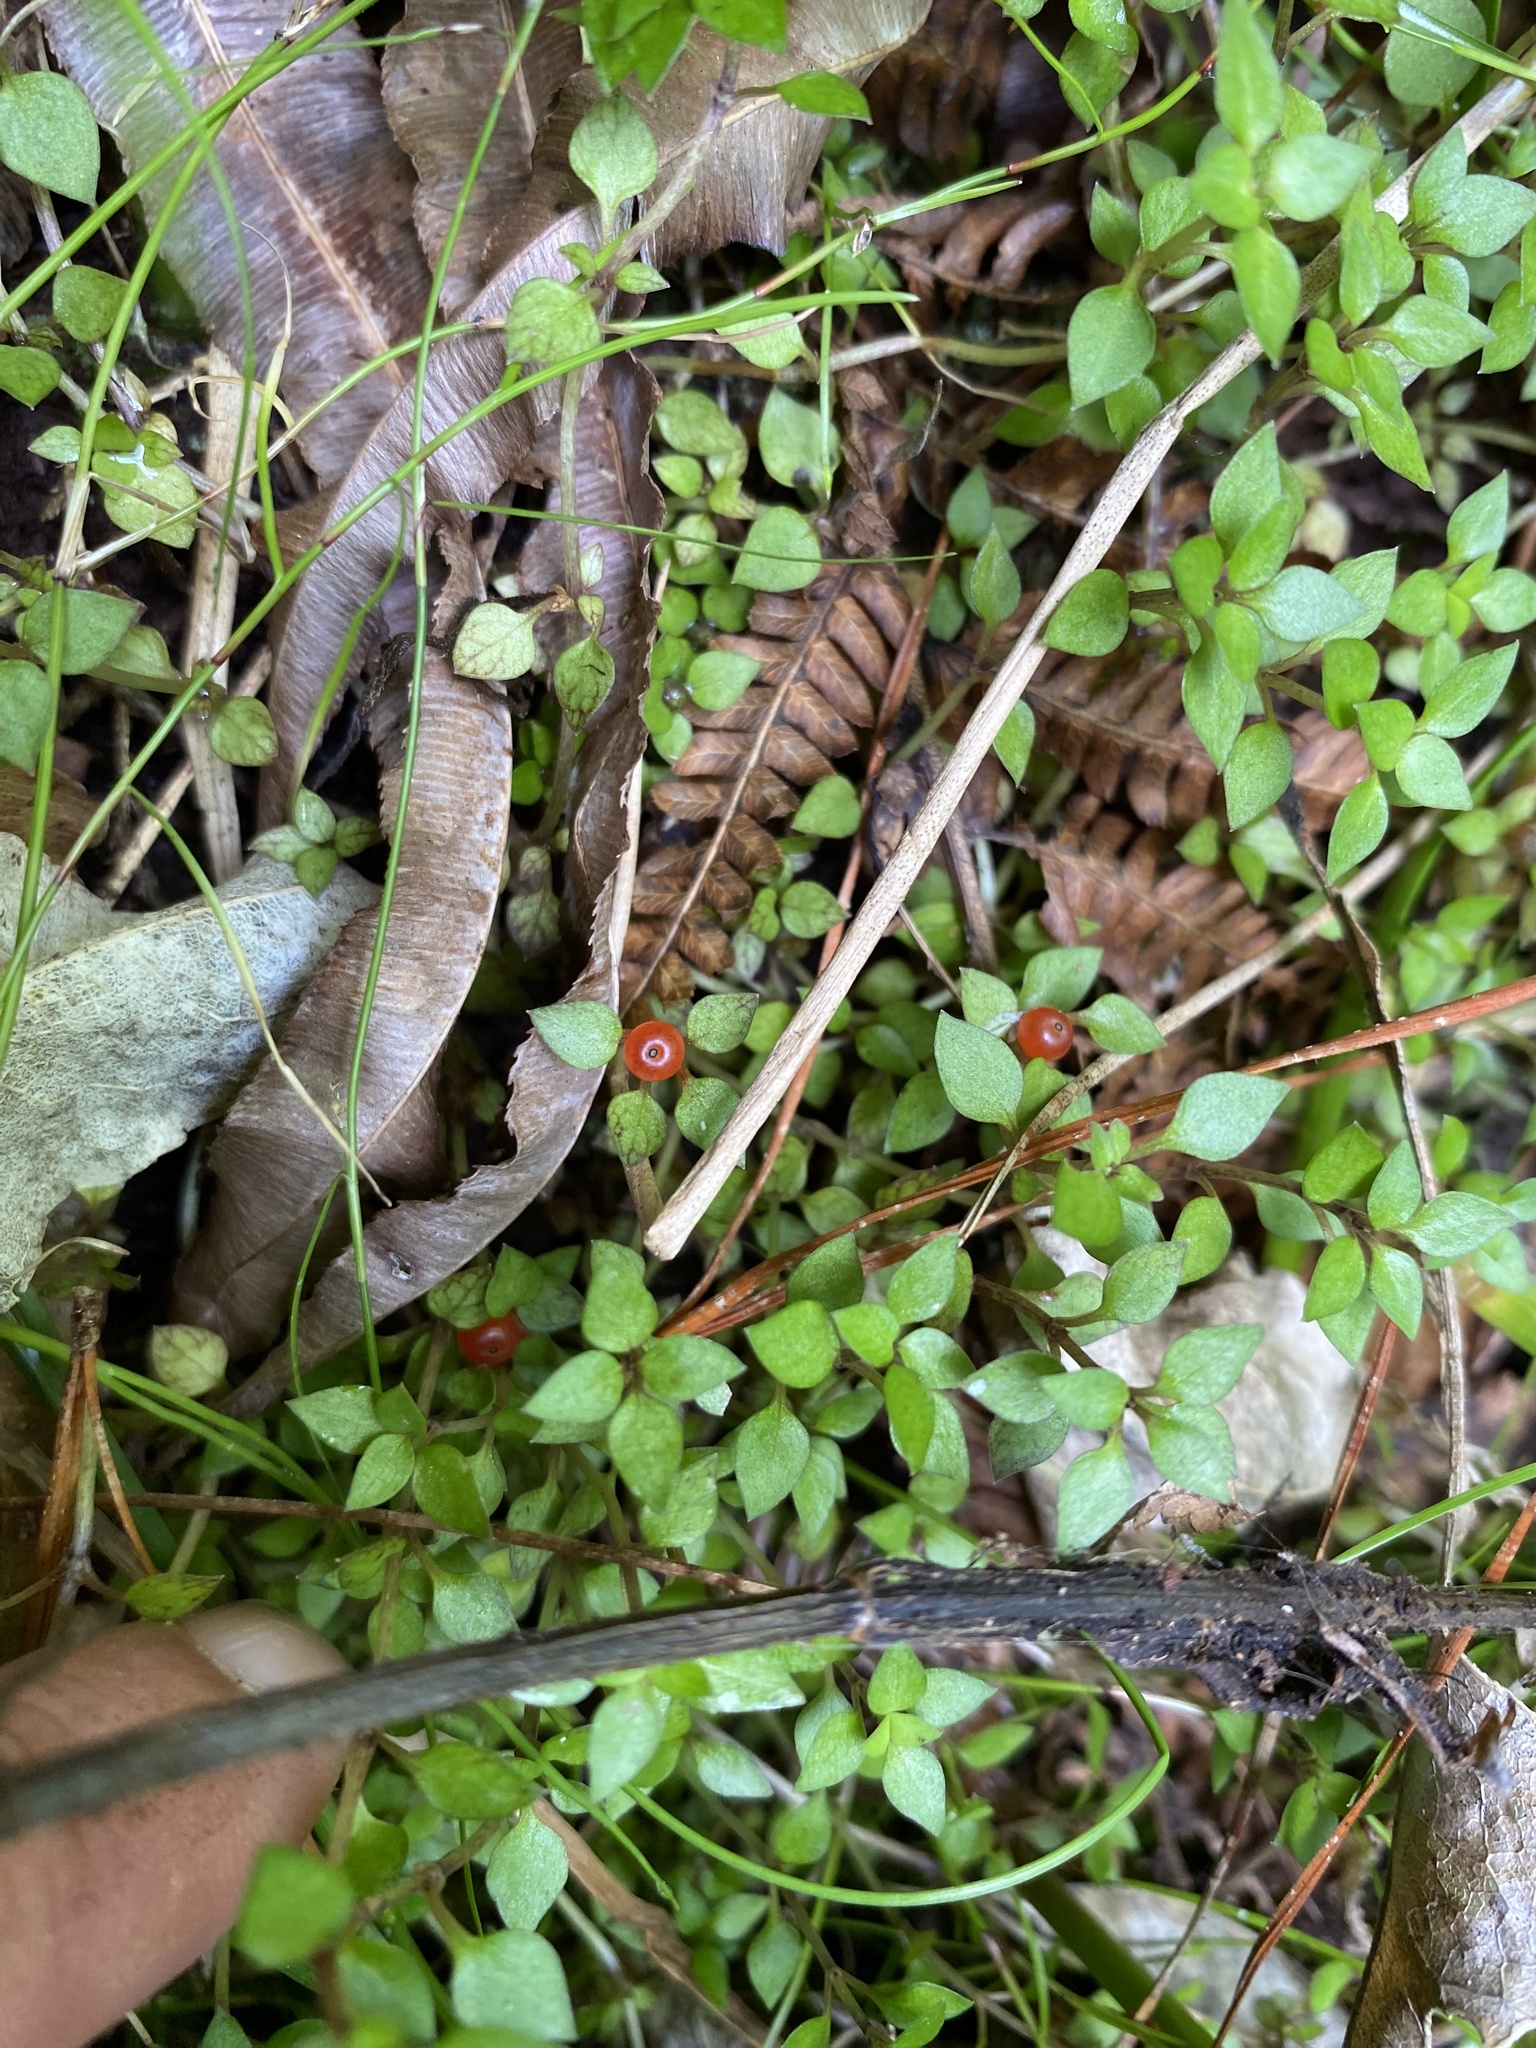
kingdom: Plantae
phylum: Tracheophyta
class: Magnoliopsida
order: Gentianales
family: Rubiaceae
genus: Nertera
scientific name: Nertera granadensis
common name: Beadplant
